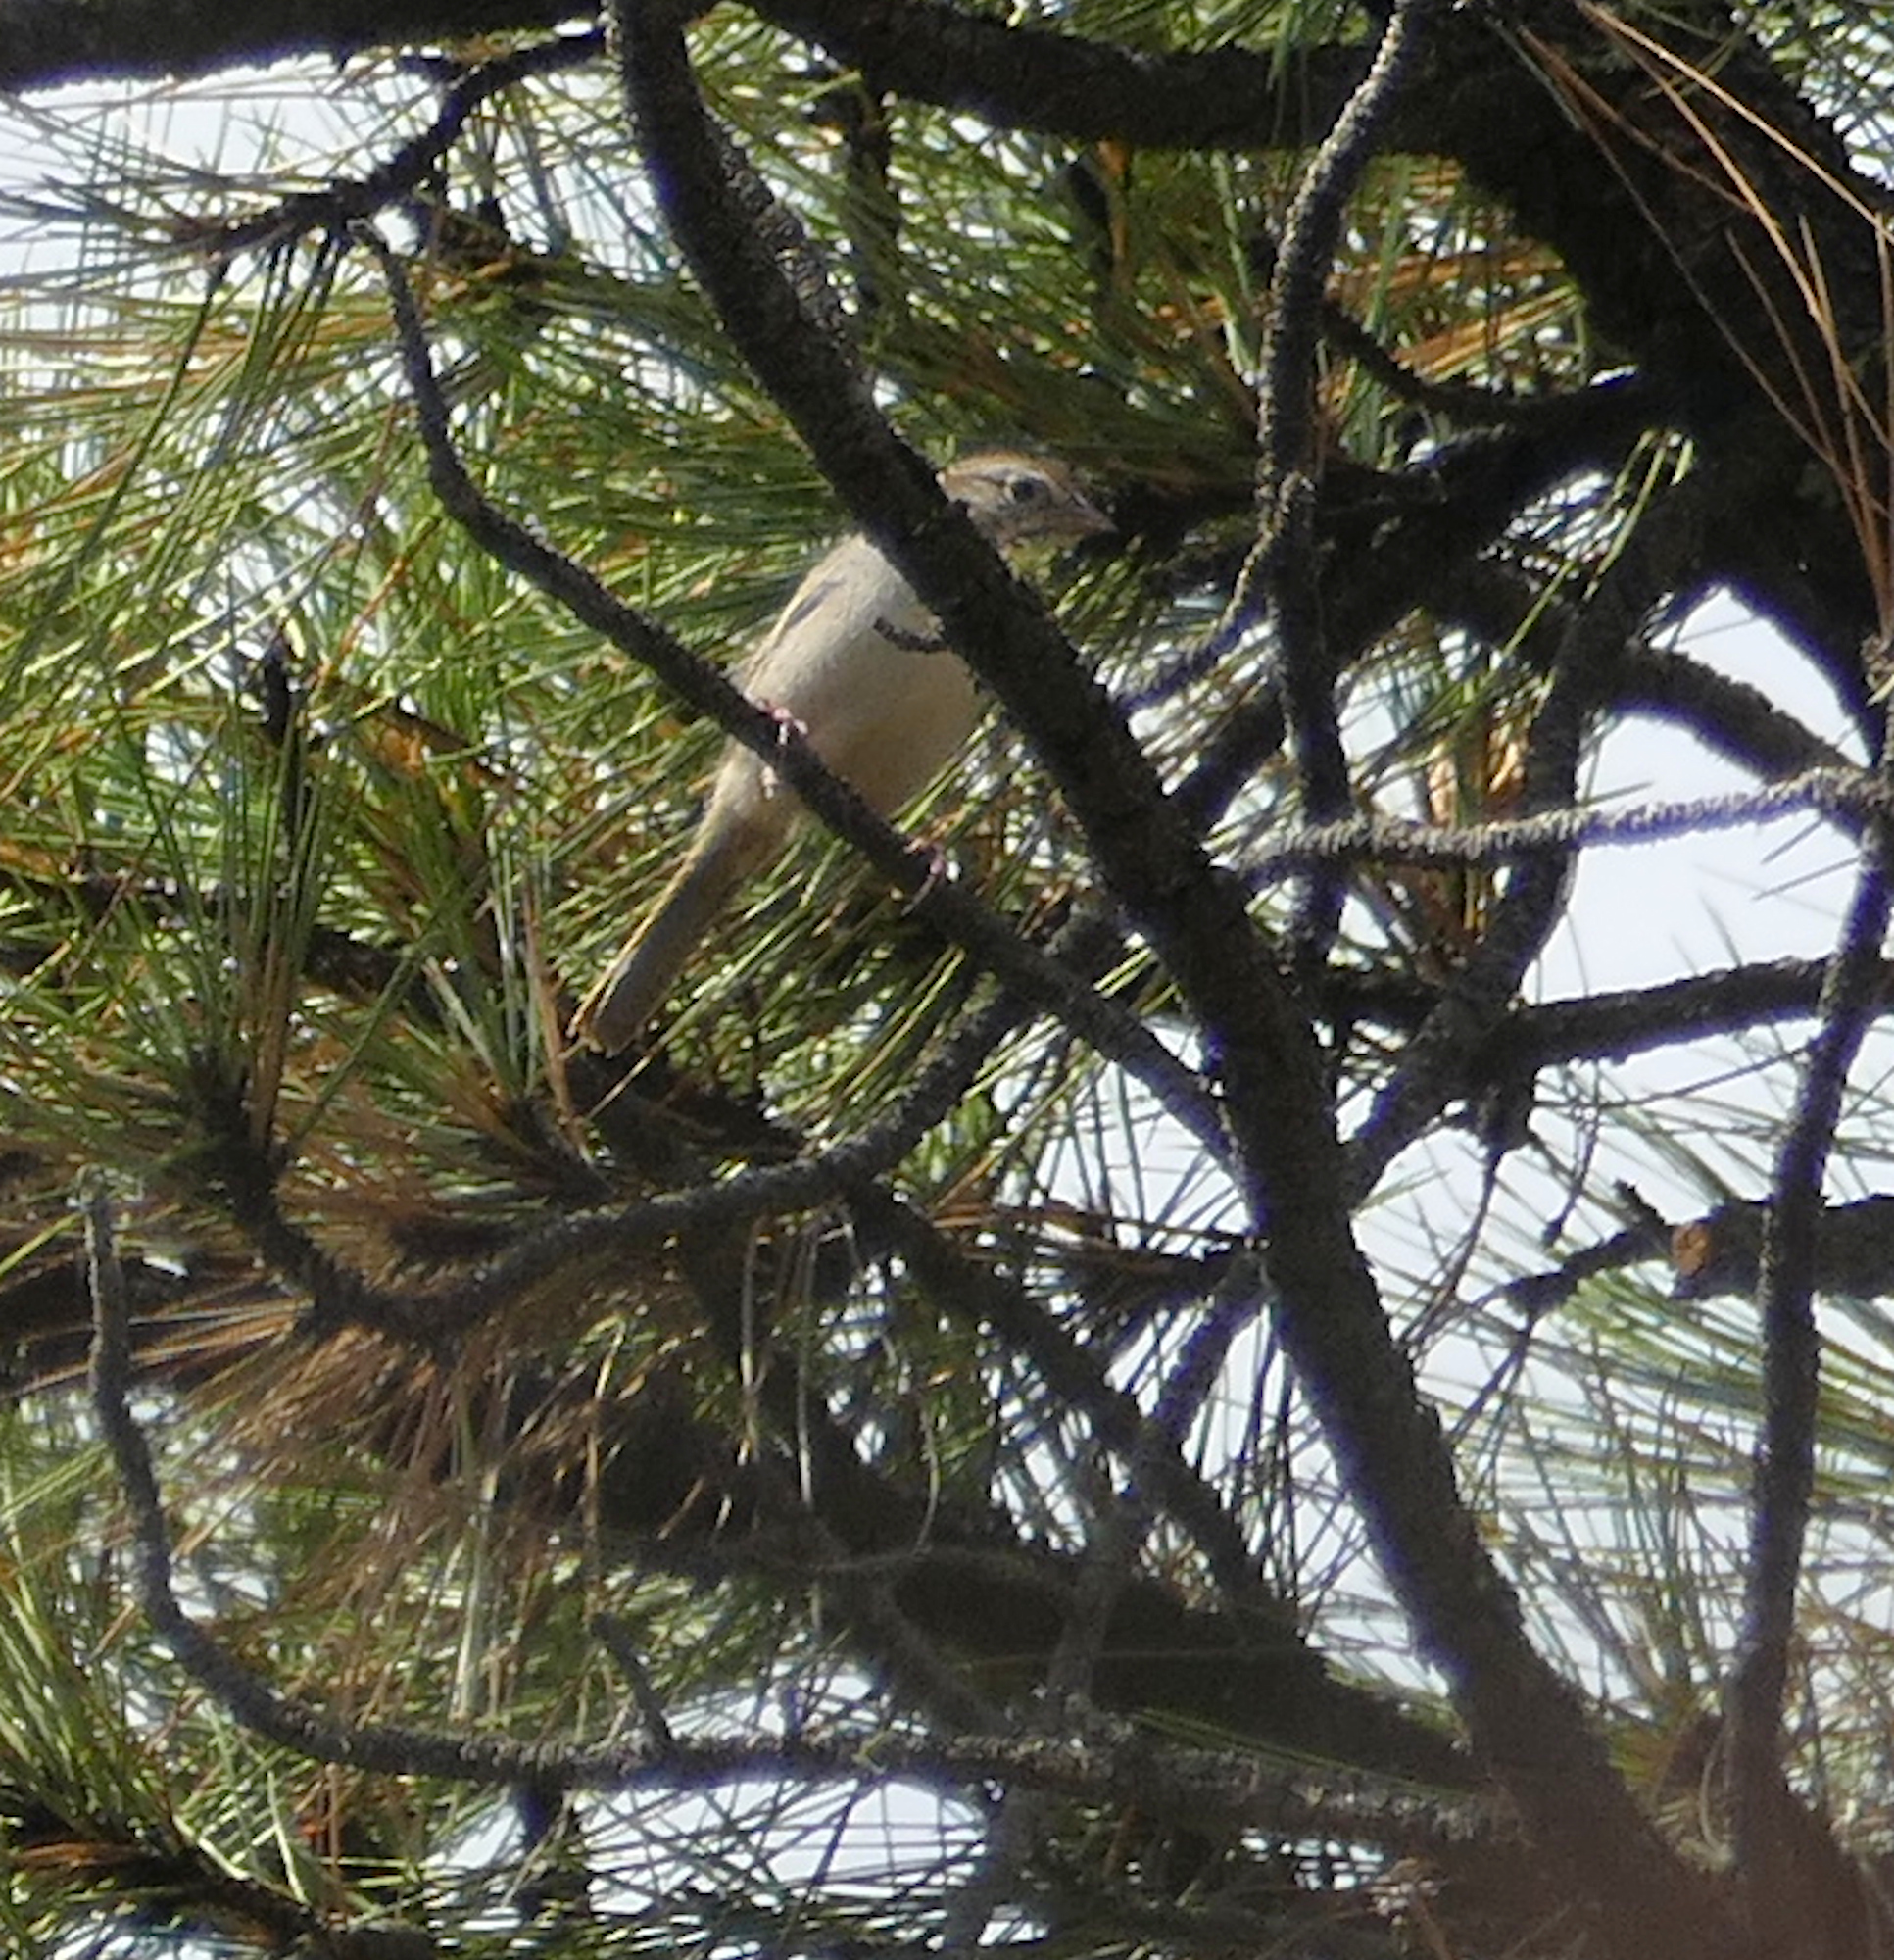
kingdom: Animalia
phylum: Chordata
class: Aves
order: Passeriformes
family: Passerellidae
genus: Aimophila
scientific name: Aimophila ruficeps
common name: Rufous-crowned sparrow
